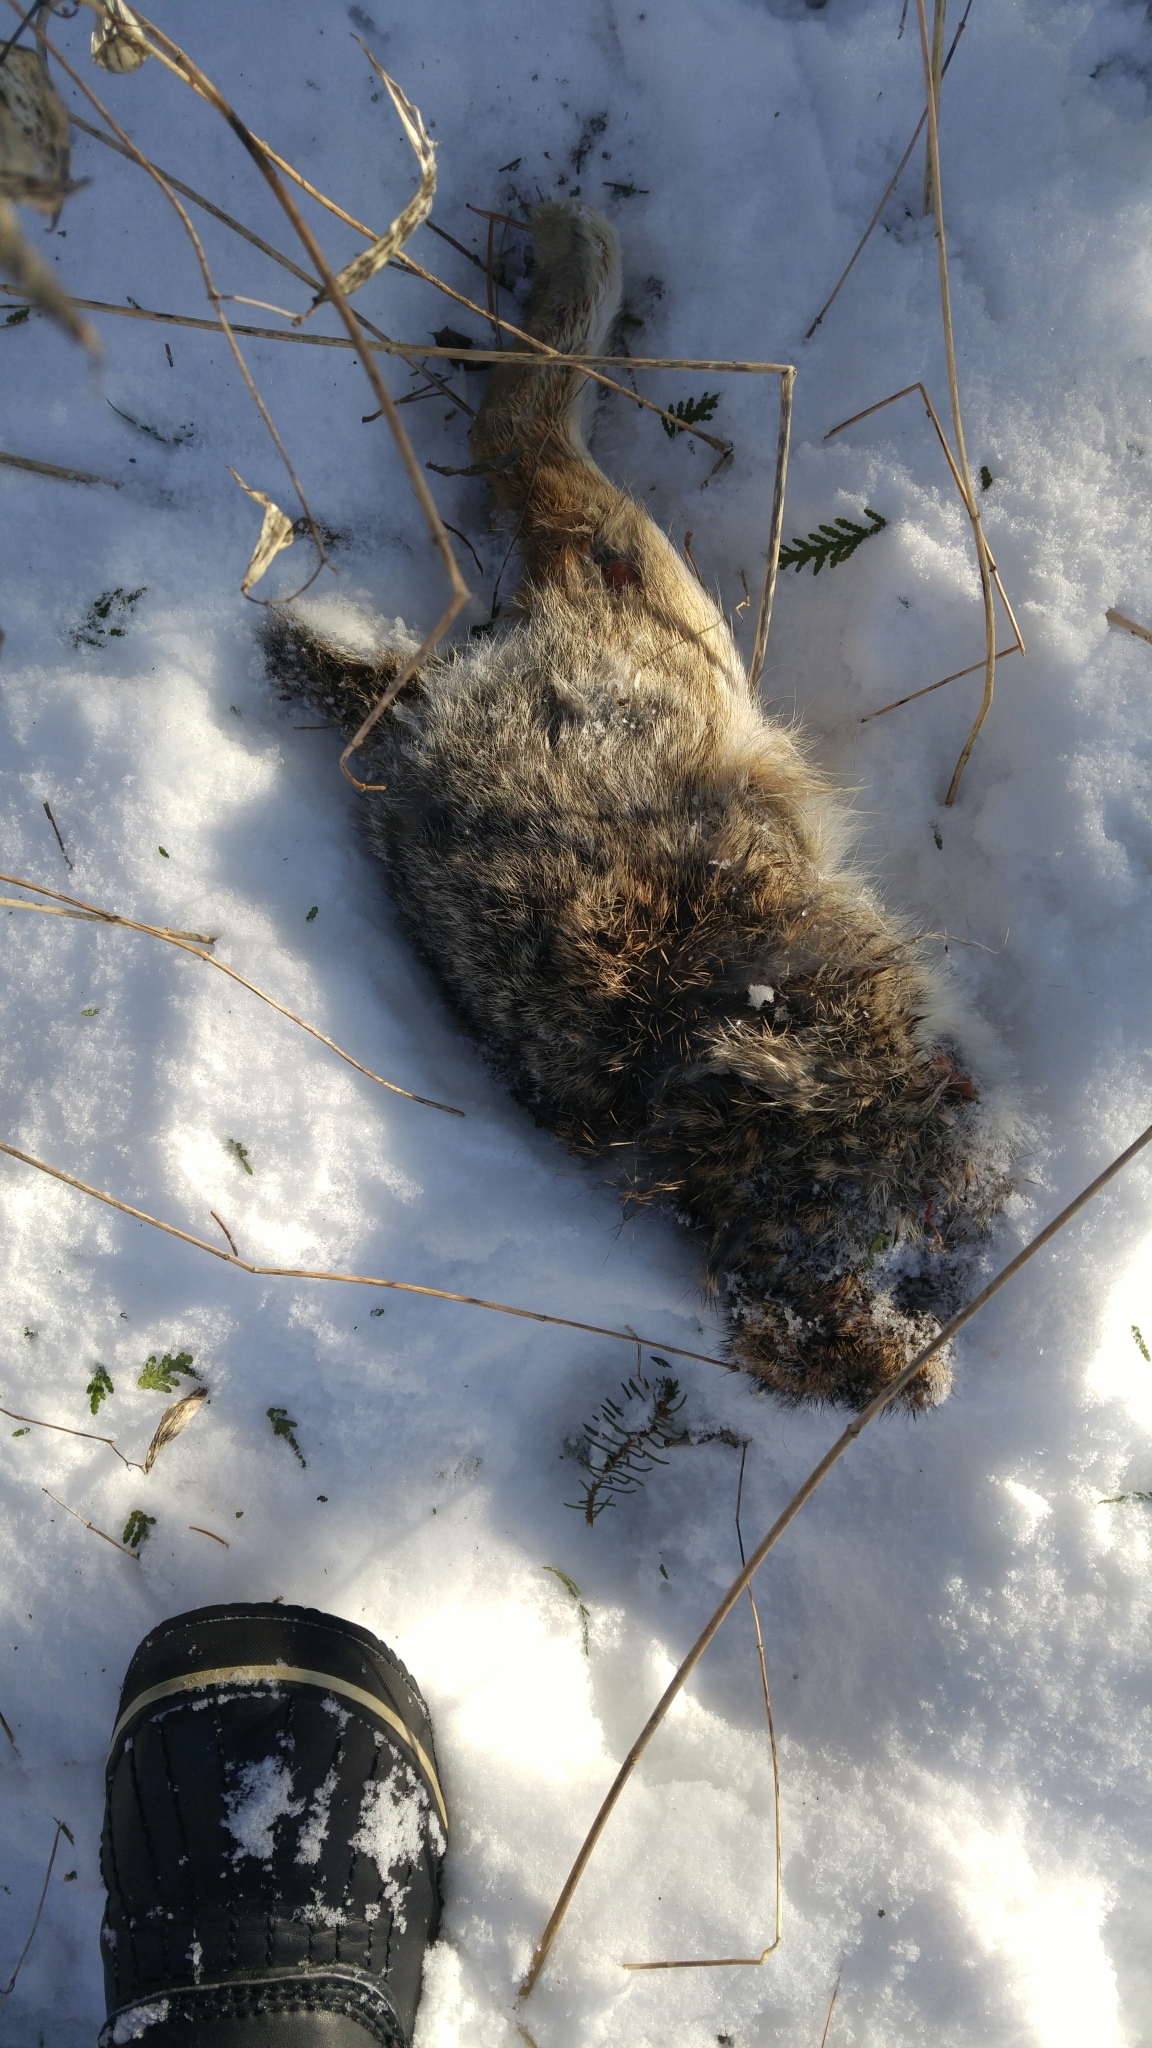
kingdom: Animalia
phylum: Chordata
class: Mammalia
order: Lagomorpha
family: Leporidae
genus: Sylvilagus
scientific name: Sylvilagus floridanus
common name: Eastern cottontail
